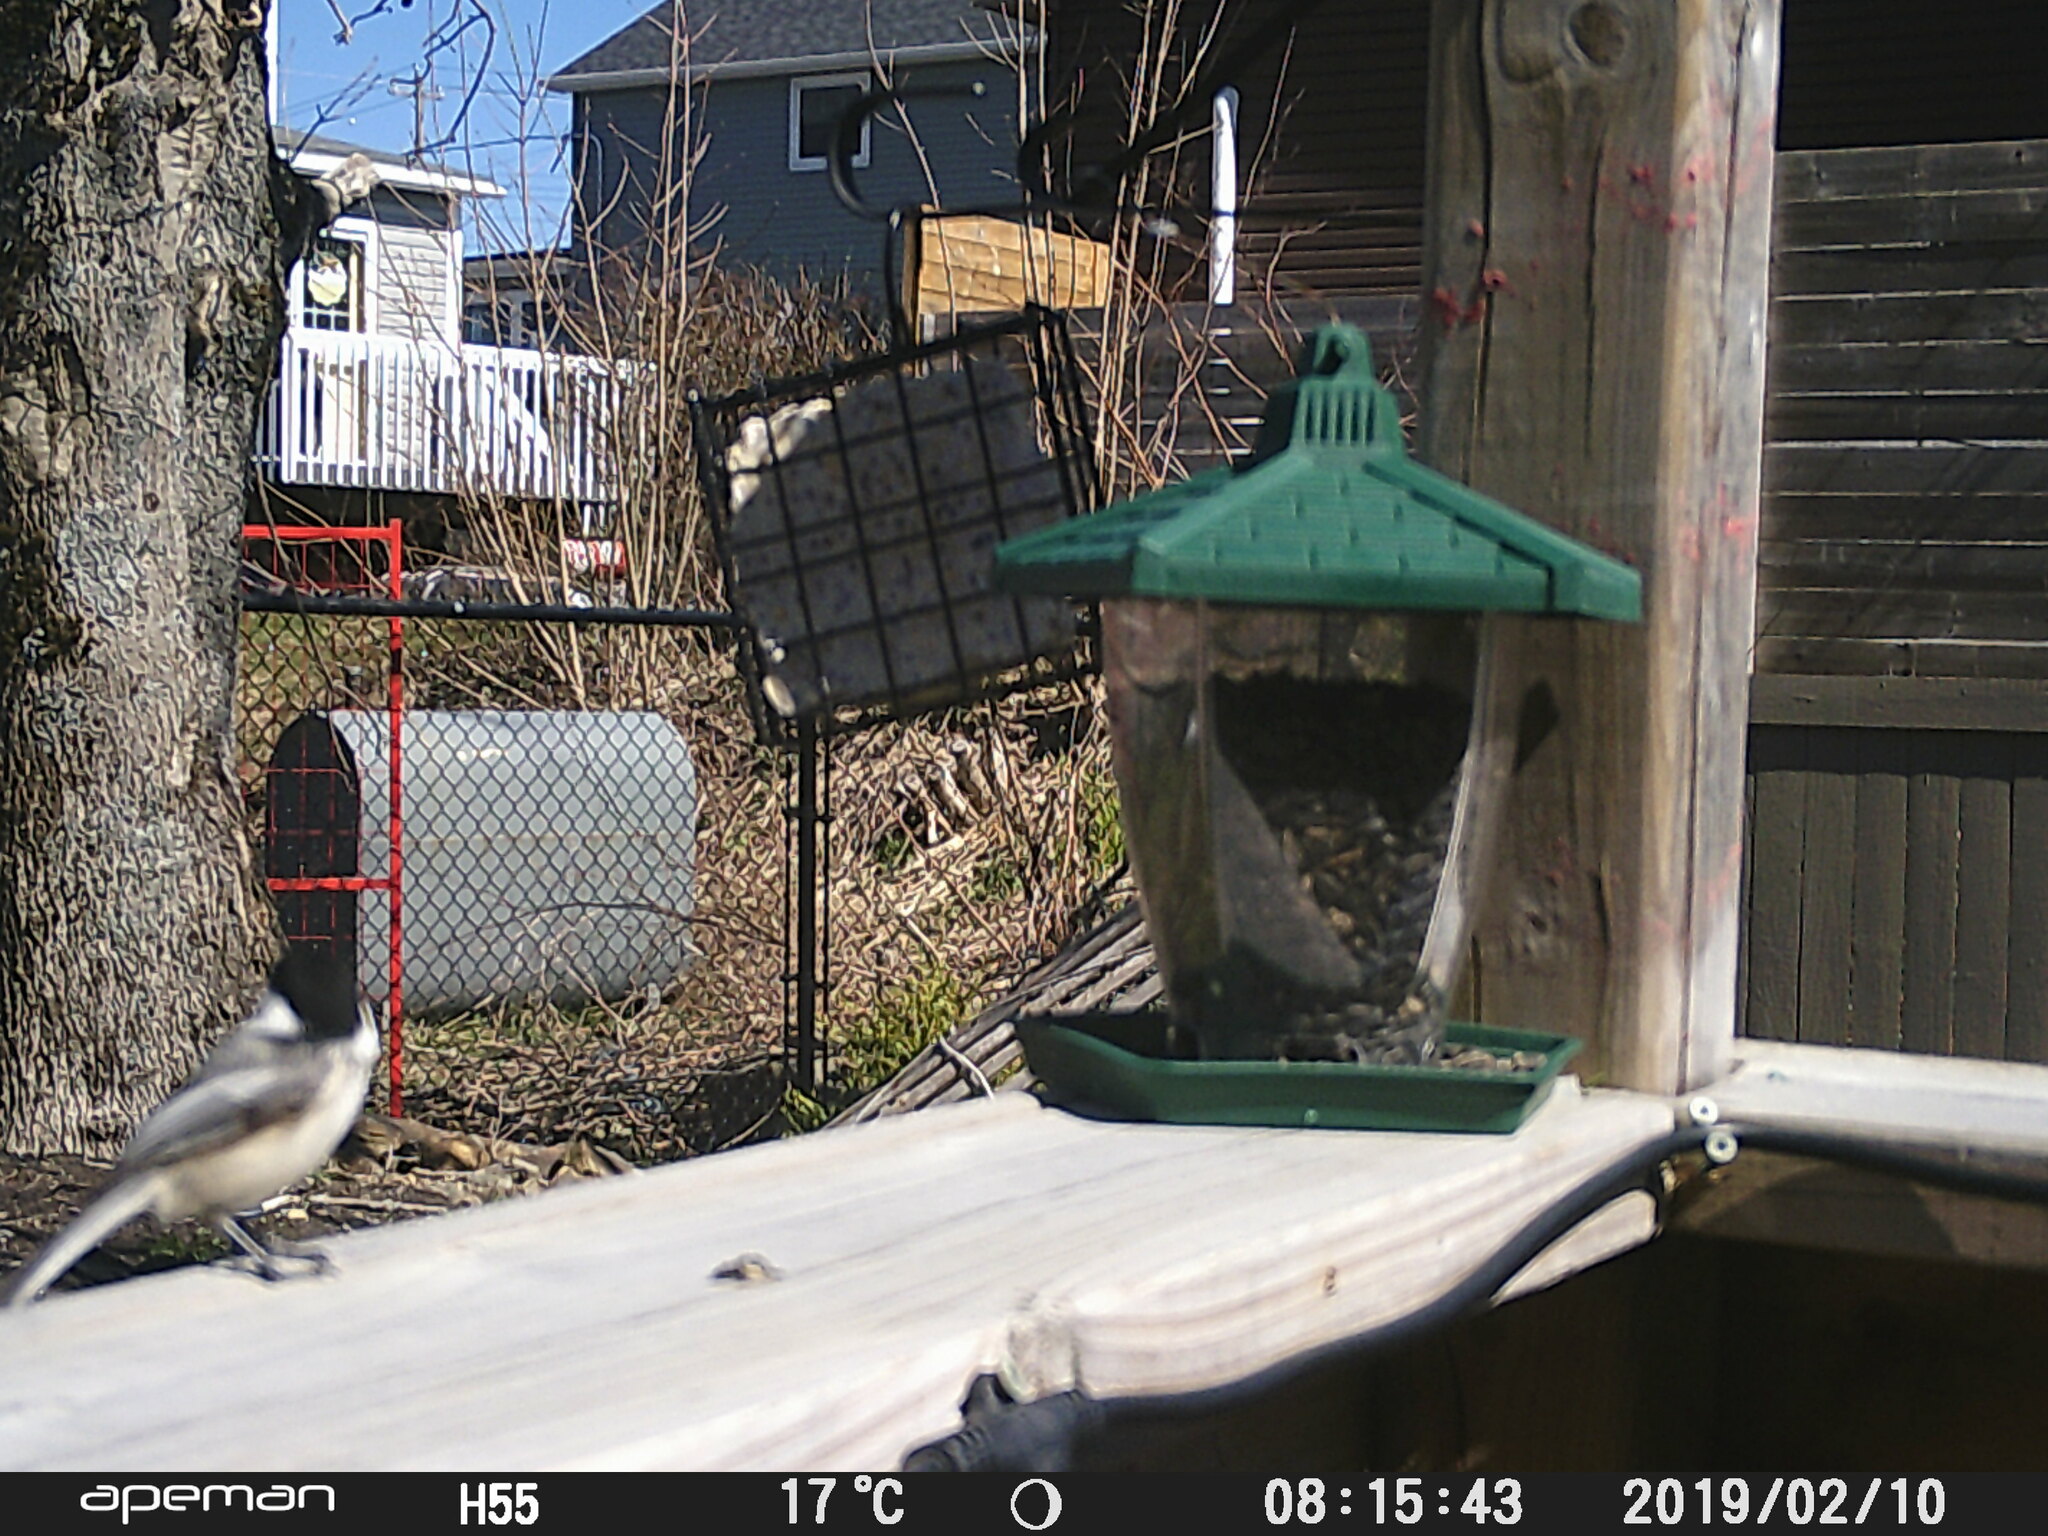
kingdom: Animalia
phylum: Chordata
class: Aves
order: Passeriformes
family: Paridae
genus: Poecile
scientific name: Poecile atricapillus
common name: Black-capped chickadee
